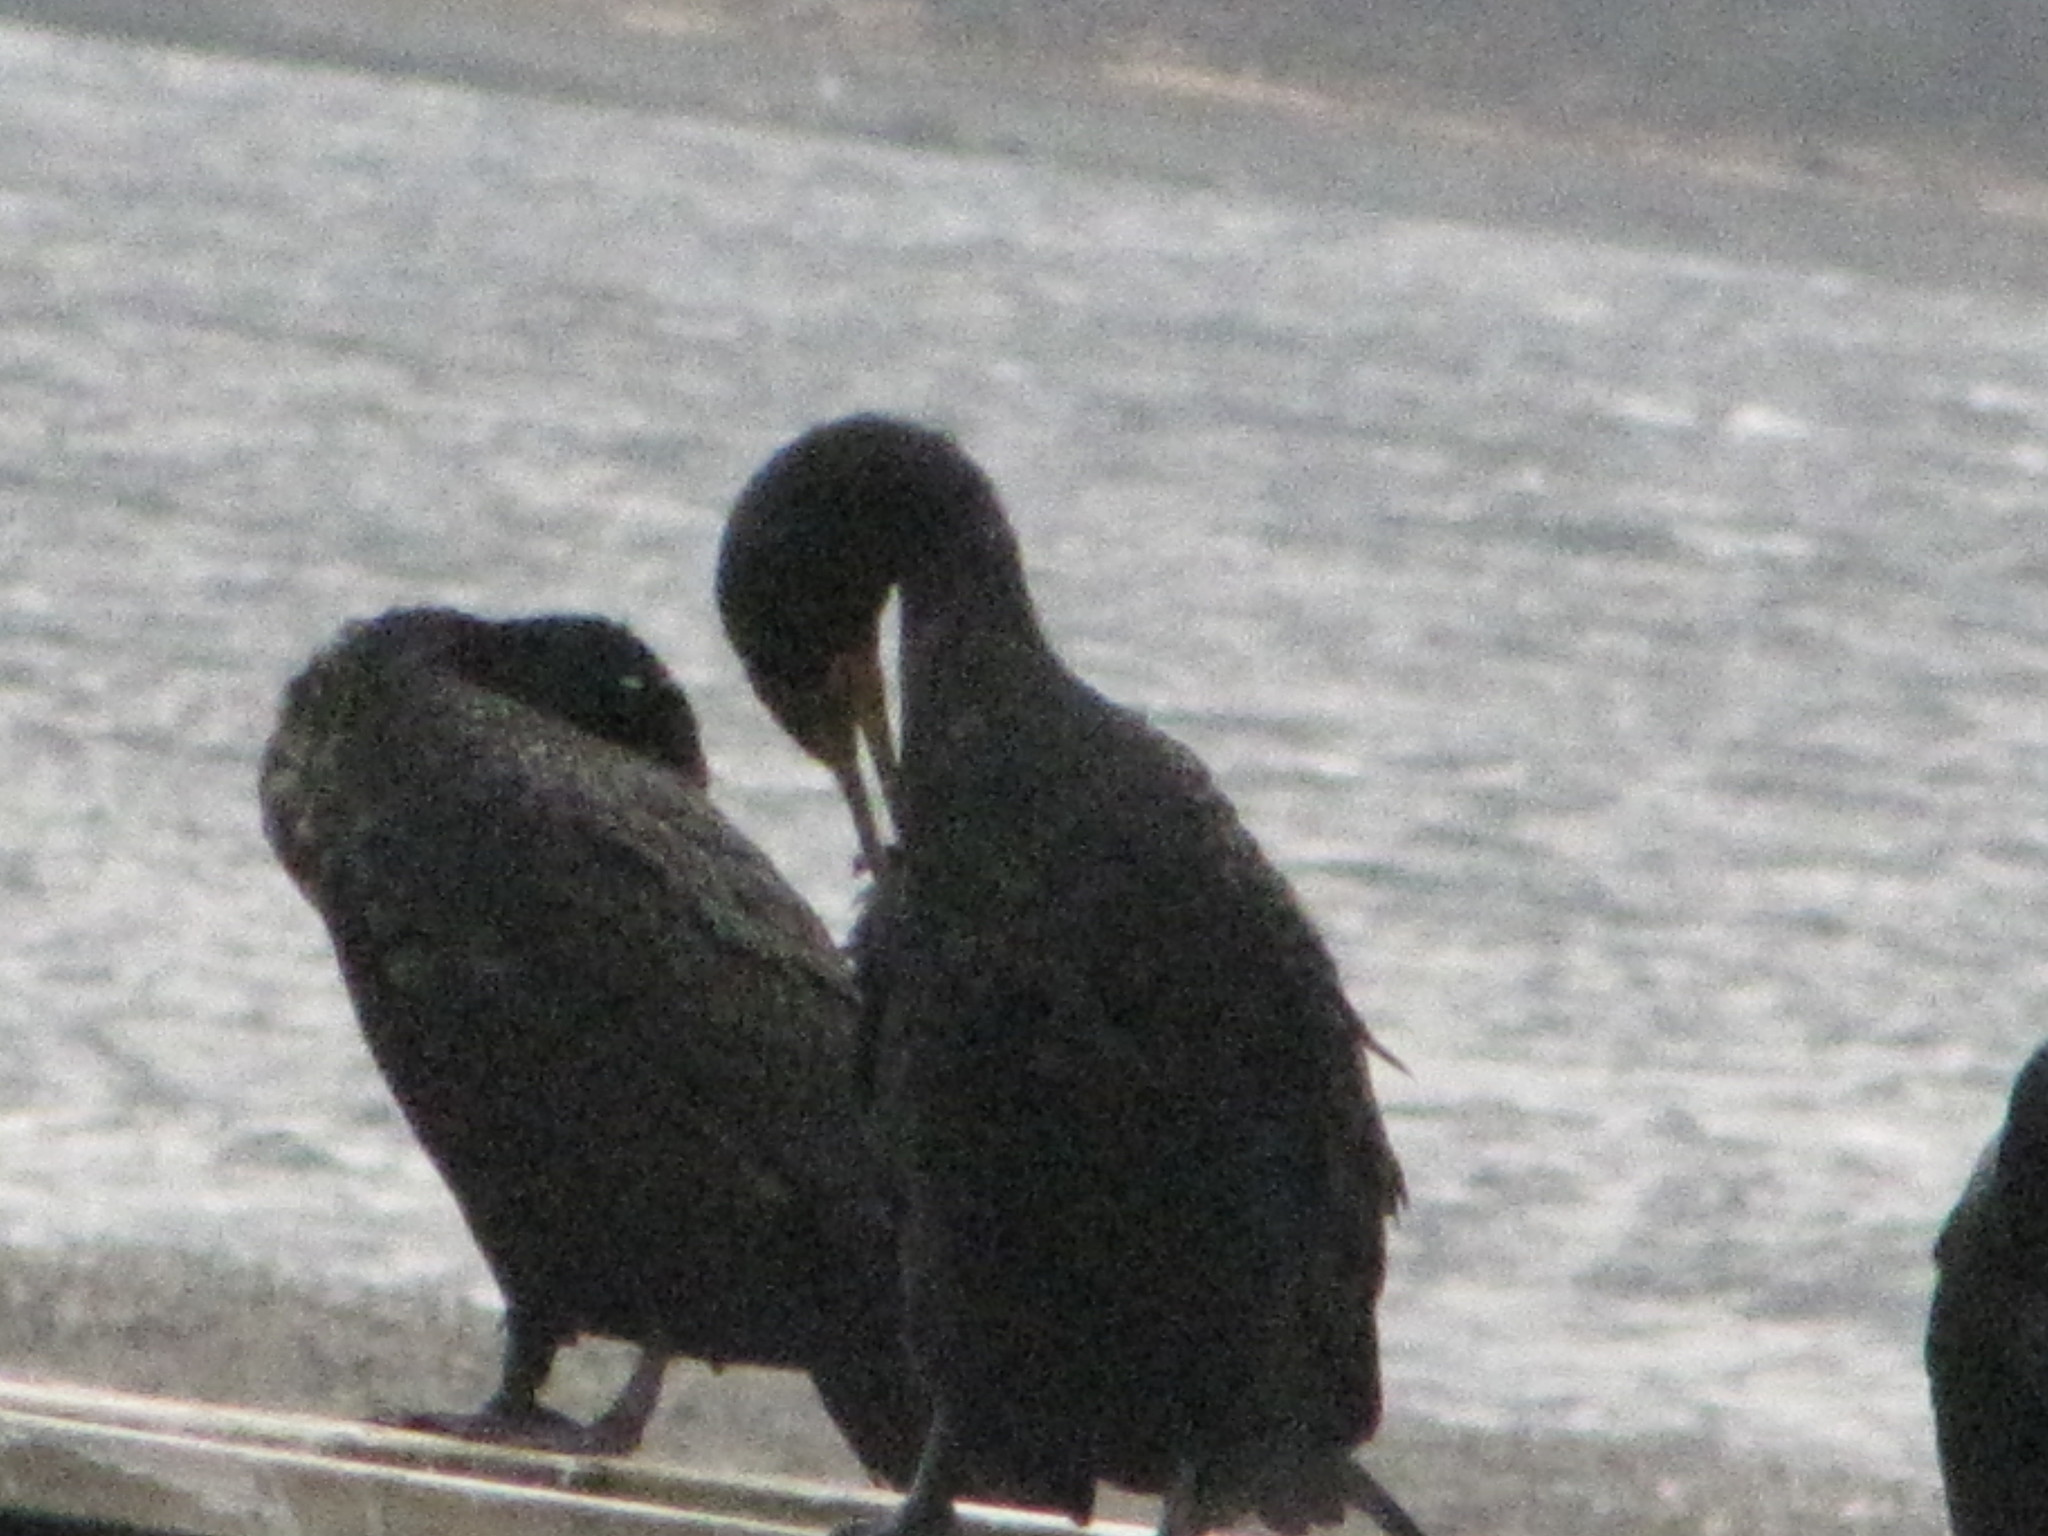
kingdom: Animalia
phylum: Chordata
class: Aves
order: Suliformes
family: Phalacrocoracidae
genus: Phalacrocorax
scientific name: Phalacrocorax auritus
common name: Double-crested cormorant
